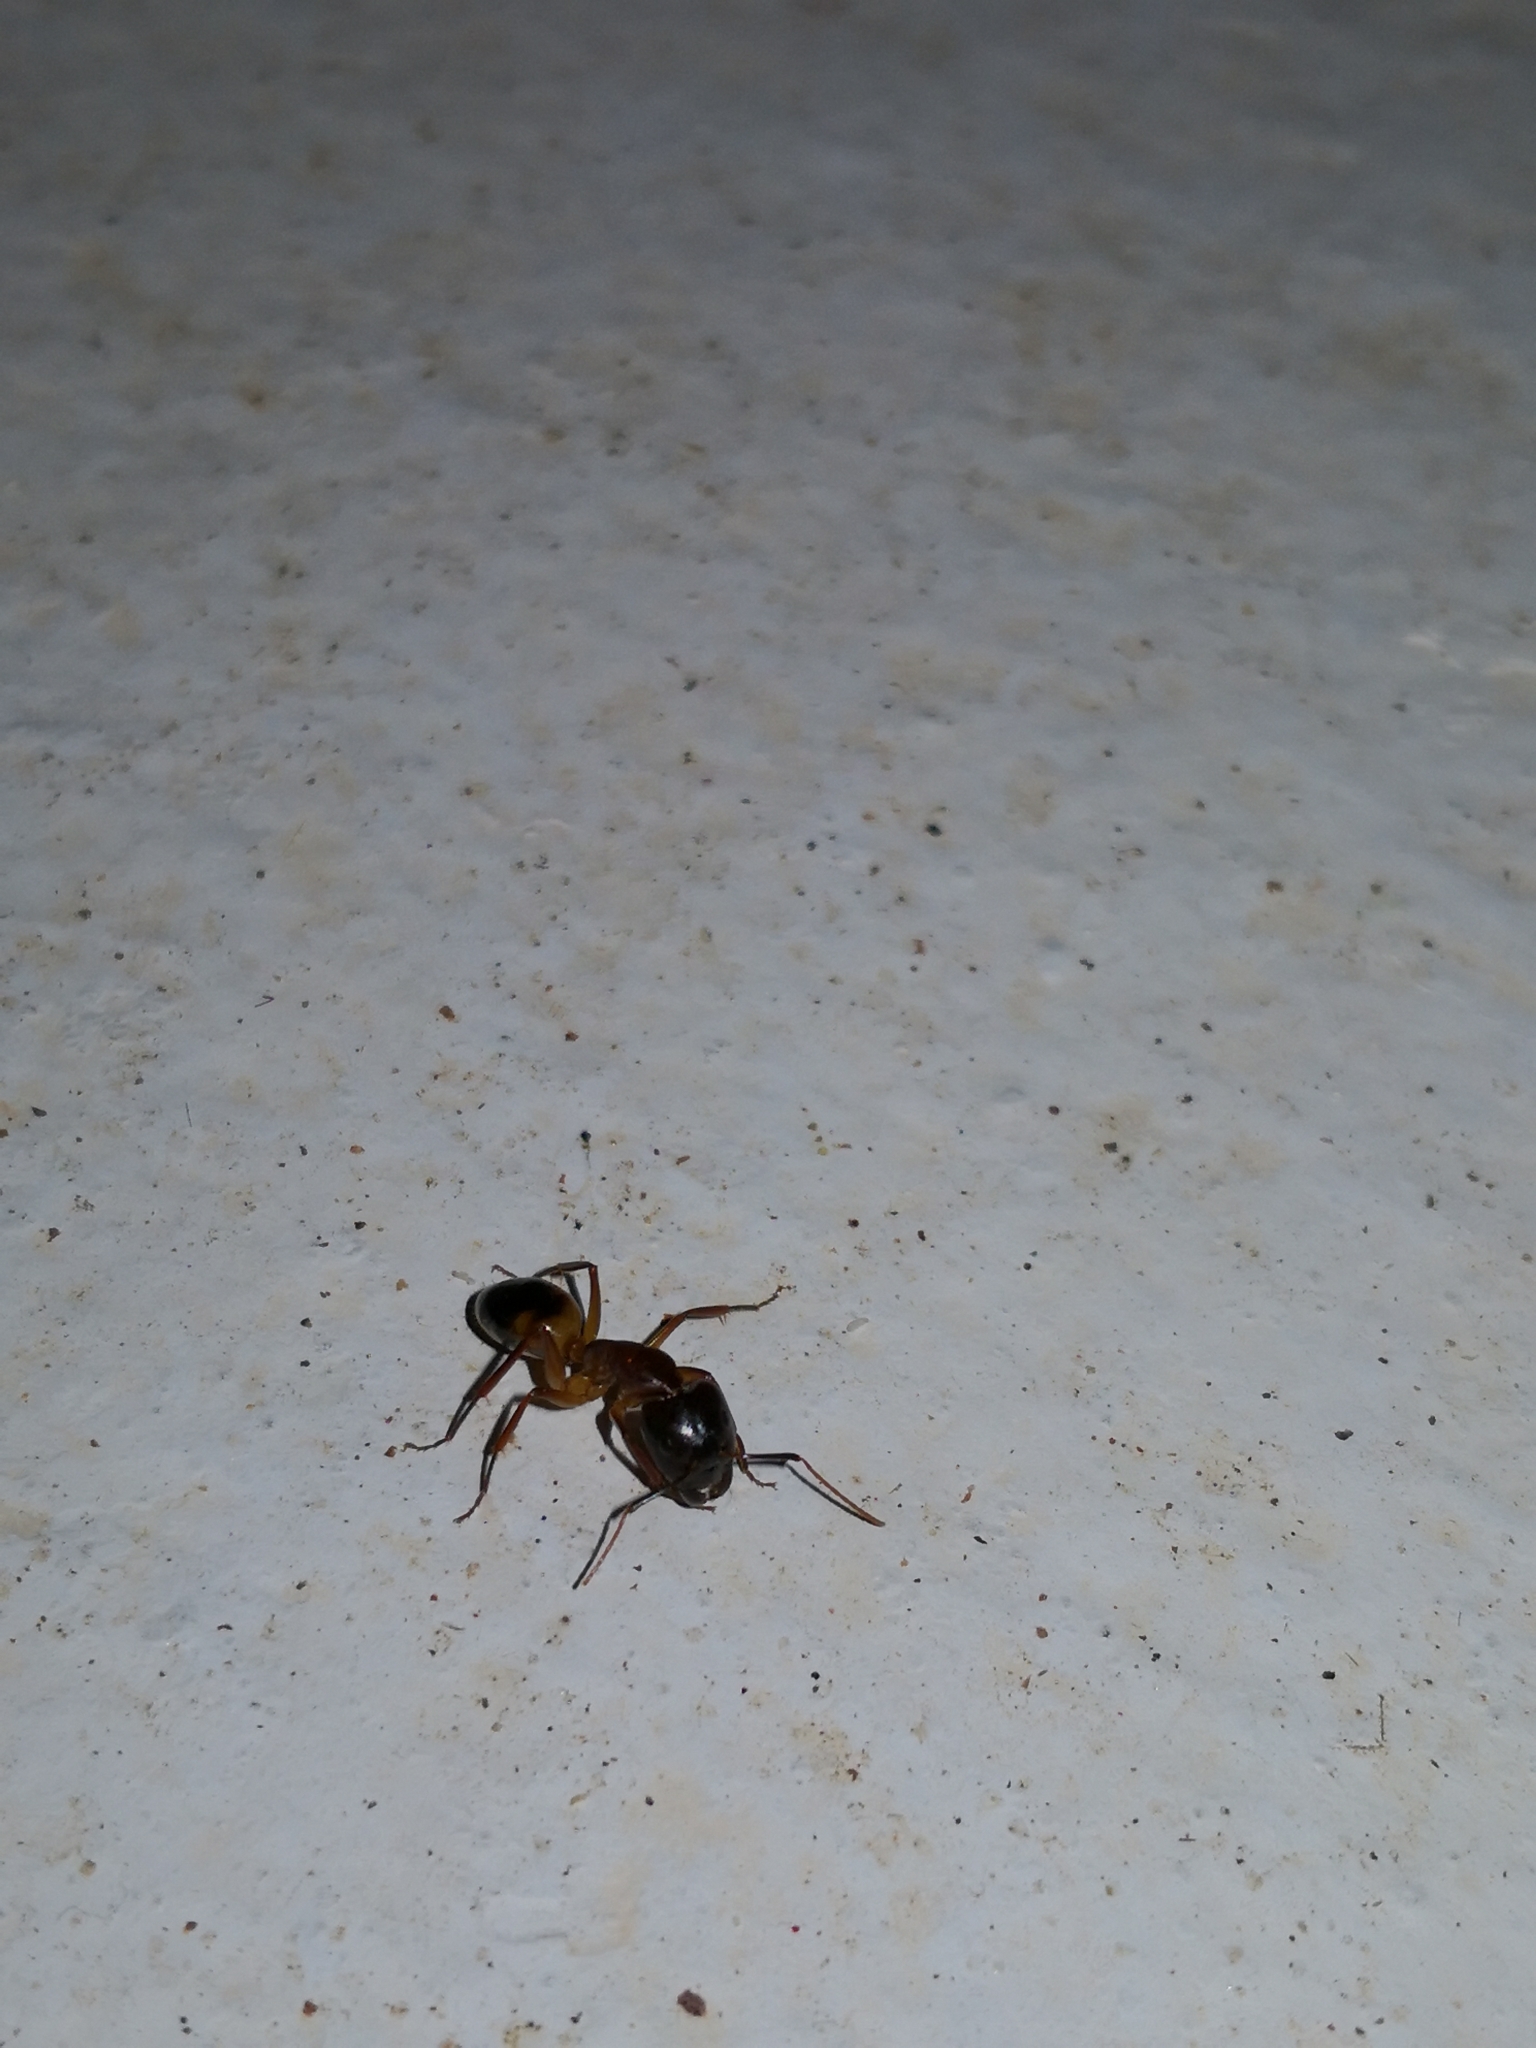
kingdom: Animalia
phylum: Arthropoda
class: Insecta
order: Hymenoptera
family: Formicidae
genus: Camponotus
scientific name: Camponotus baldaccii
